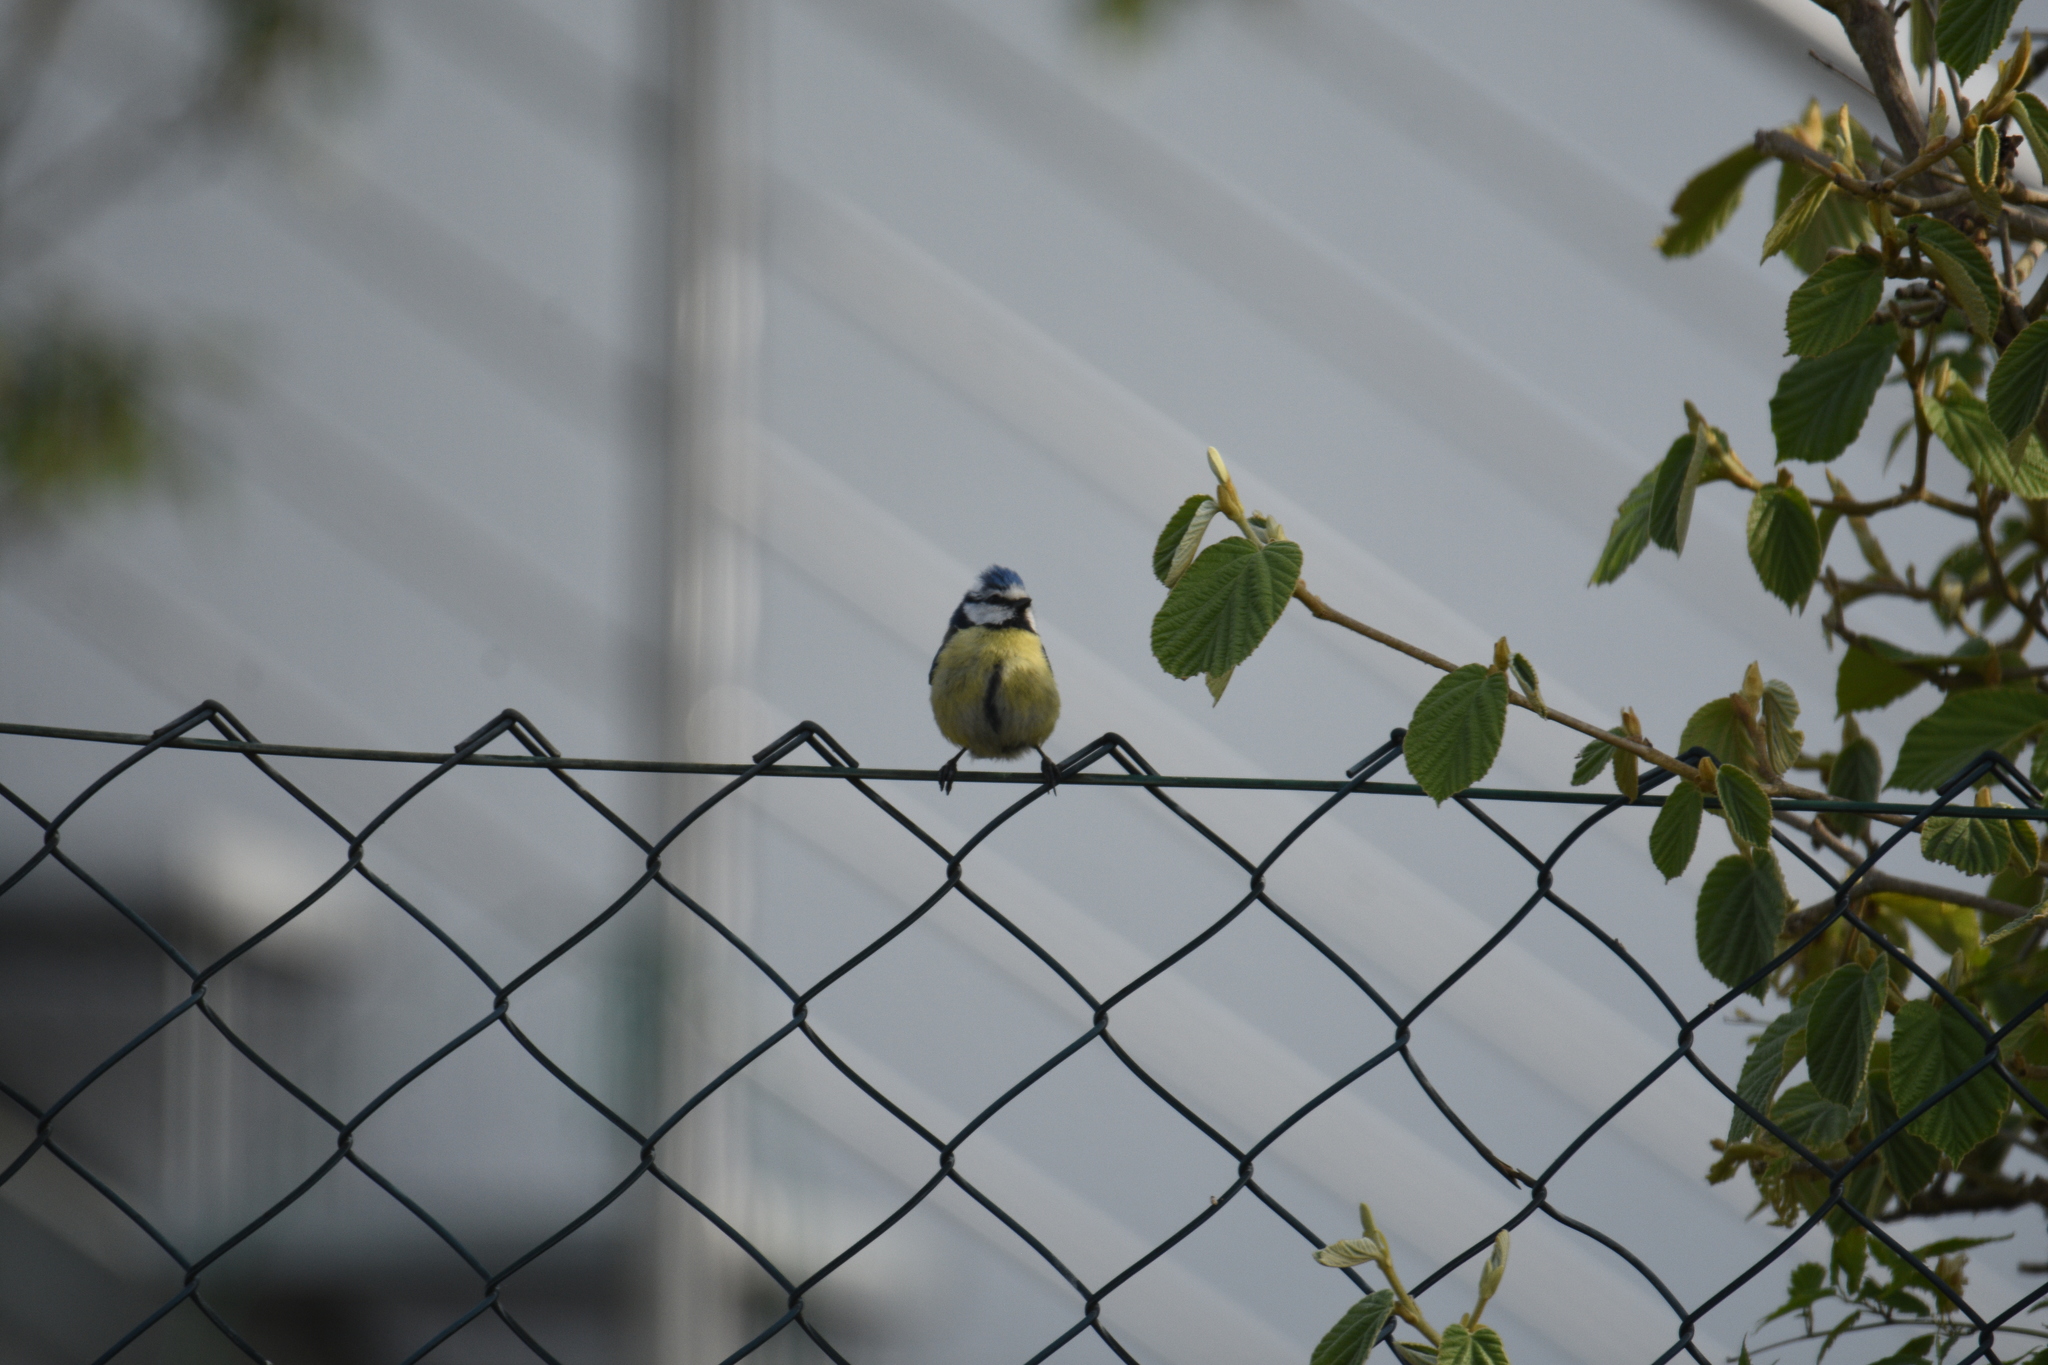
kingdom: Animalia
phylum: Chordata
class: Aves
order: Passeriformes
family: Paridae
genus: Cyanistes
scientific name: Cyanistes caeruleus
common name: Eurasian blue tit
